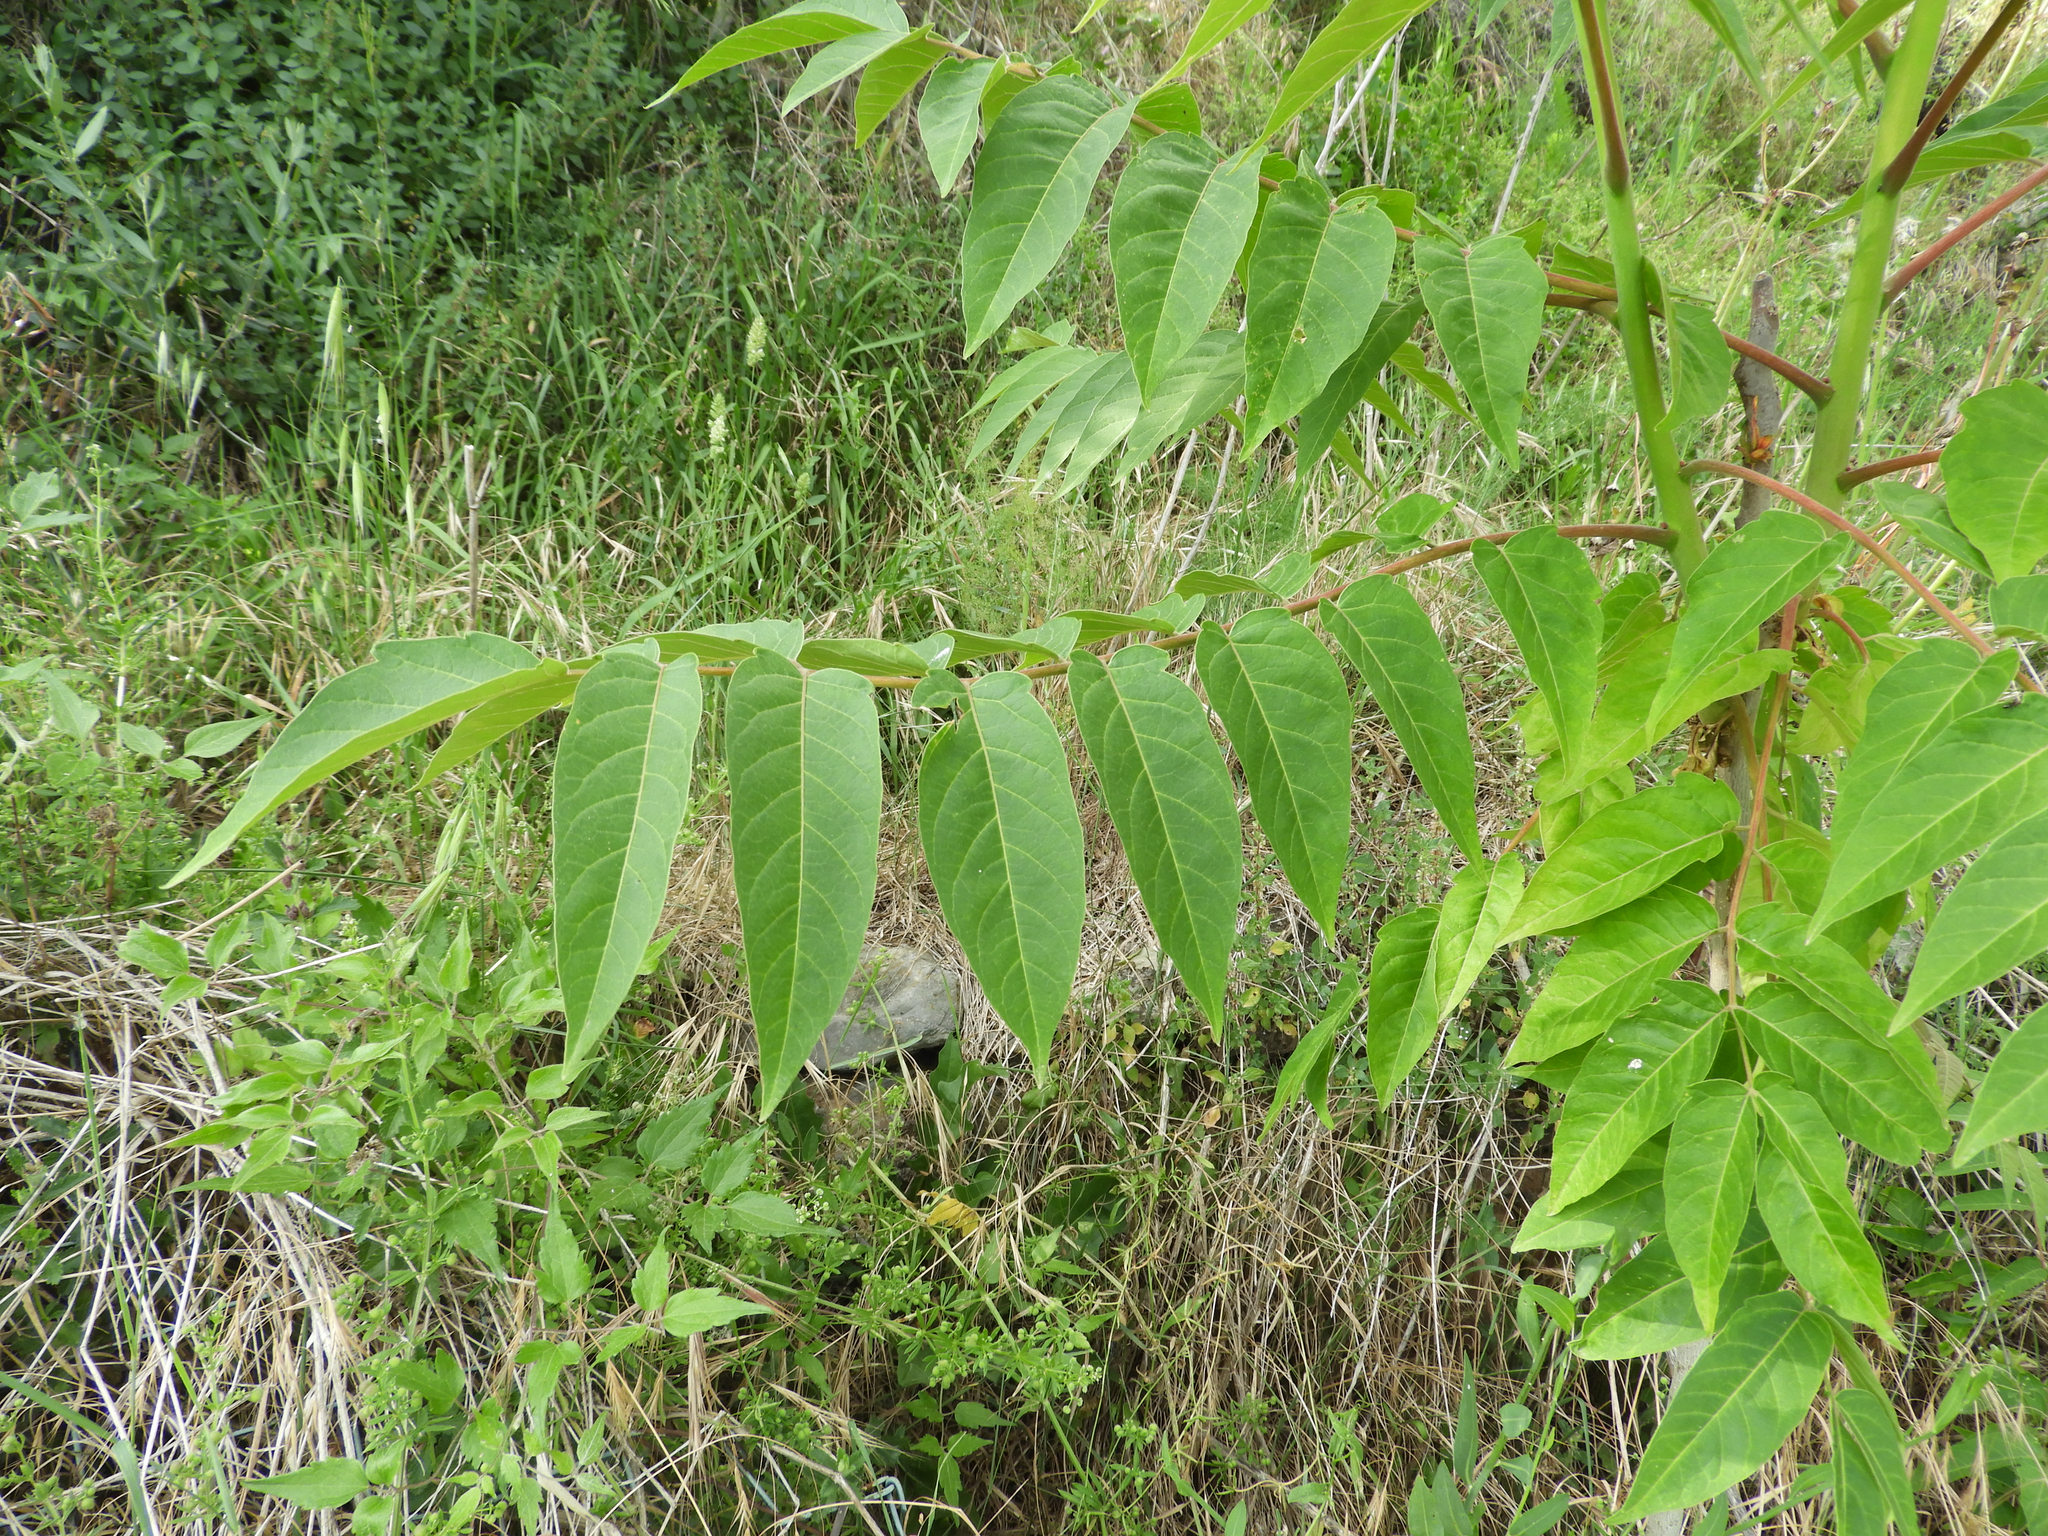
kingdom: Plantae
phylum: Tracheophyta
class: Magnoliopsida
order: Sapindales
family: Simaroubaceae
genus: Ailanthus
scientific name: Ailanthus altissima
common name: Tree-of-heaven
